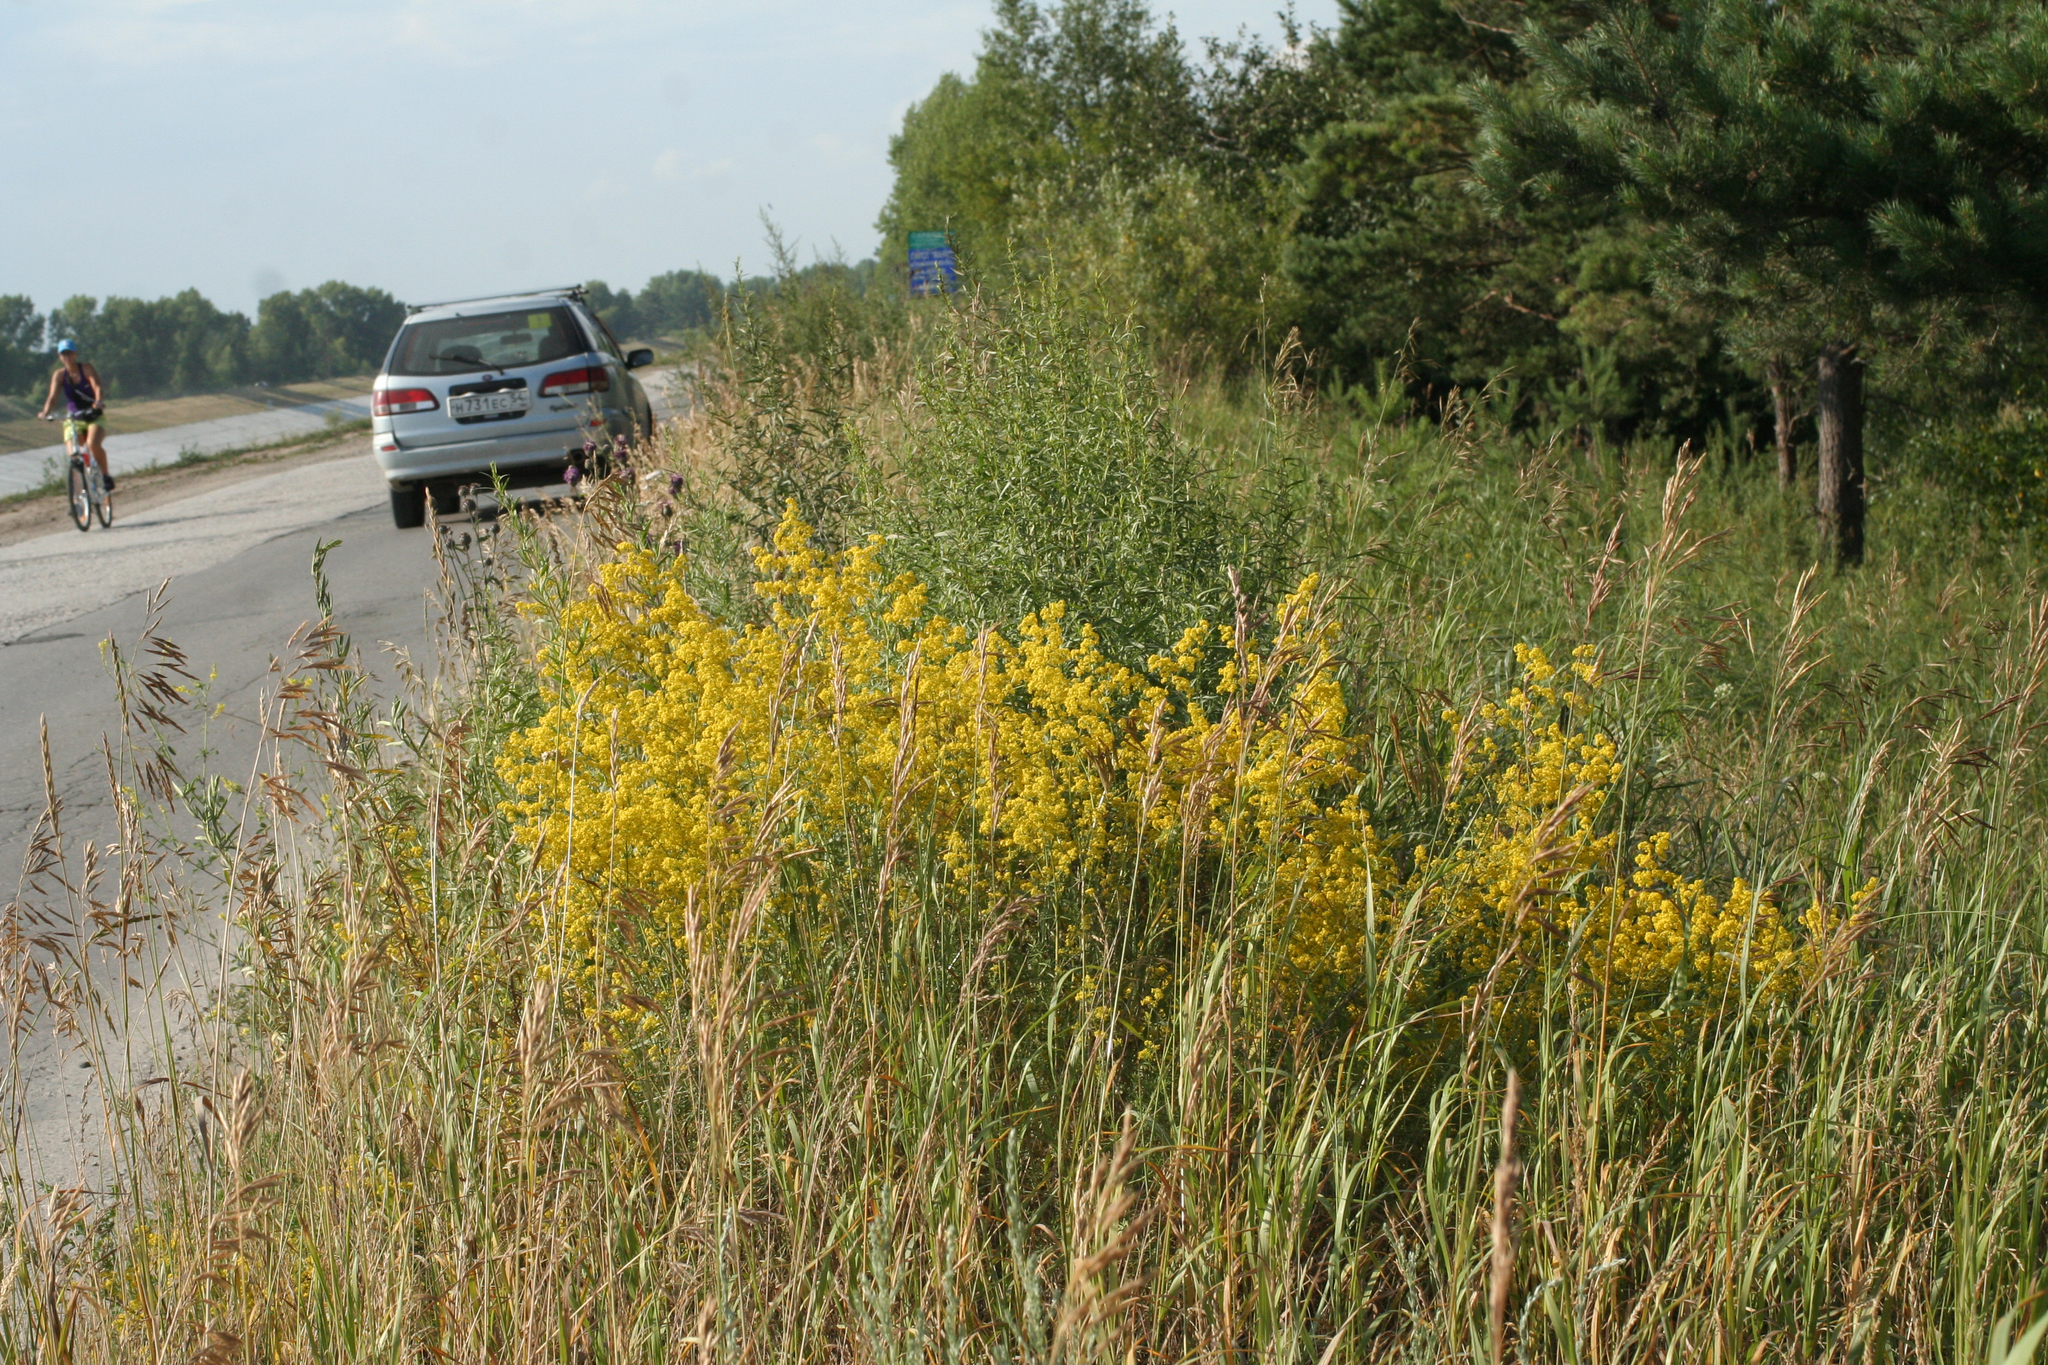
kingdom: Plantae
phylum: Tracheophyta
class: Magnoliopsida
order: Gentianales
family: Rubiaceae
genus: Galium
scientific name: Galium verum
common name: Lady's bedstraw
